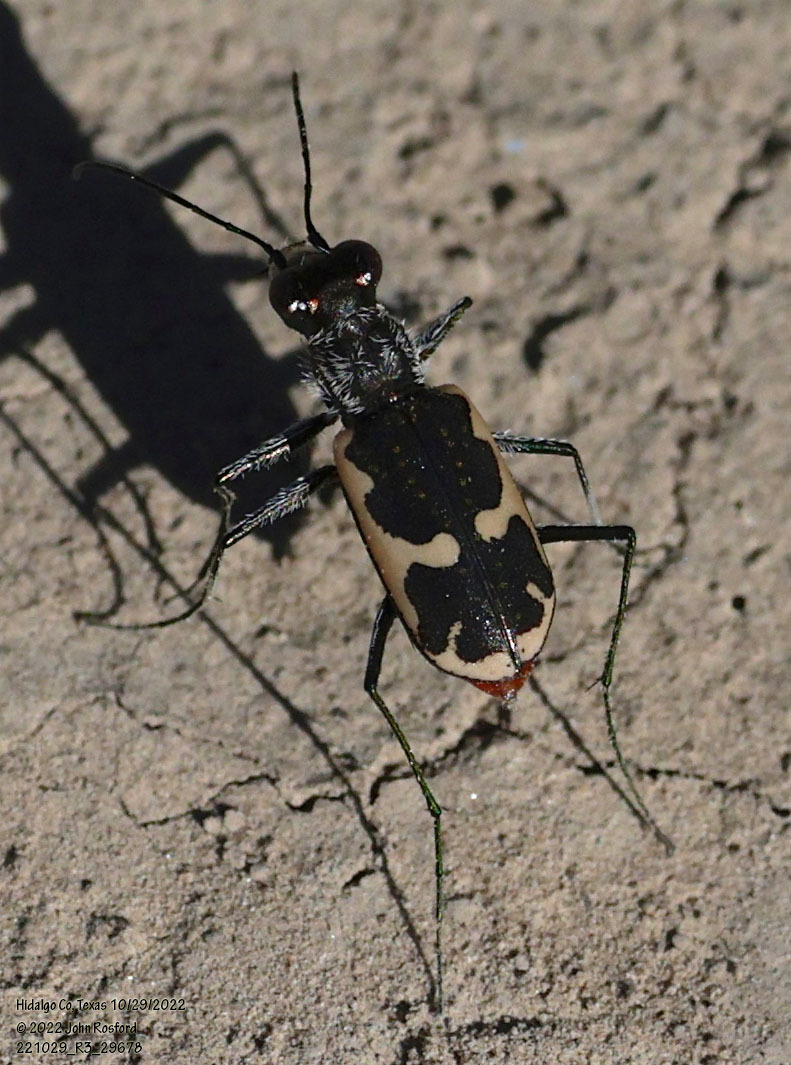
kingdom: Animalia
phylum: Arthropoda
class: Insecta
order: Coleoptera
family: Carabidae
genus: Cicindela
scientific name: Cicindela schauppii
